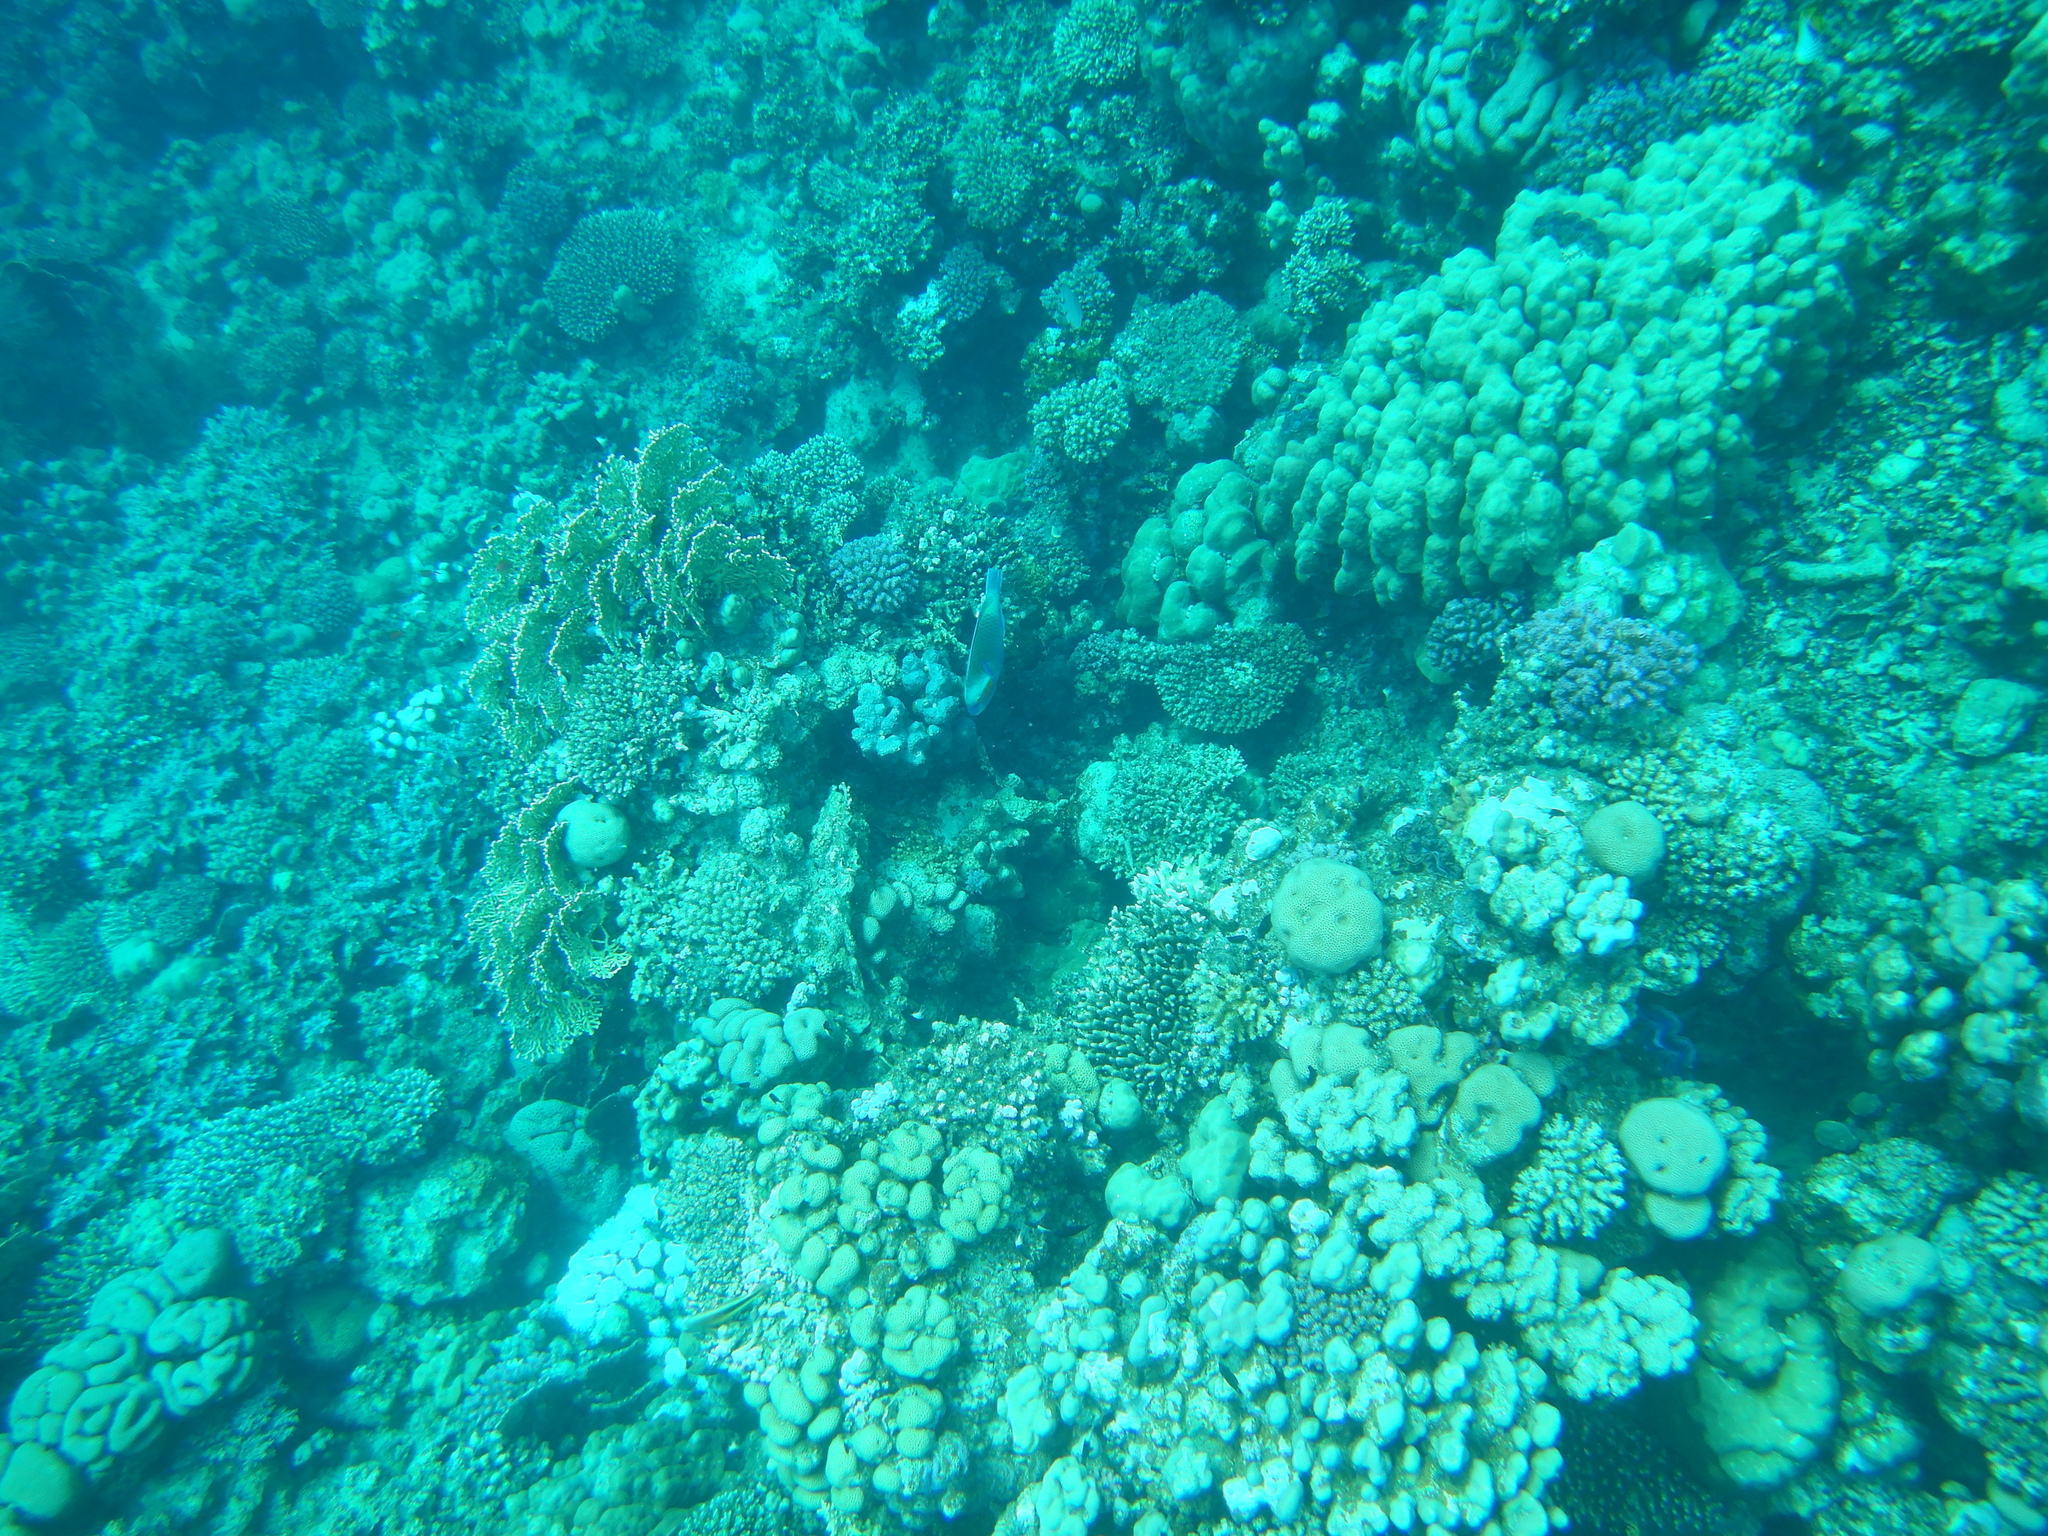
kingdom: Animalia
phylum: Chordata
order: Perciformes
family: Scaridae
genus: Chlorurus
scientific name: Chlorurus sordidus
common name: Bullethead parrotfish
